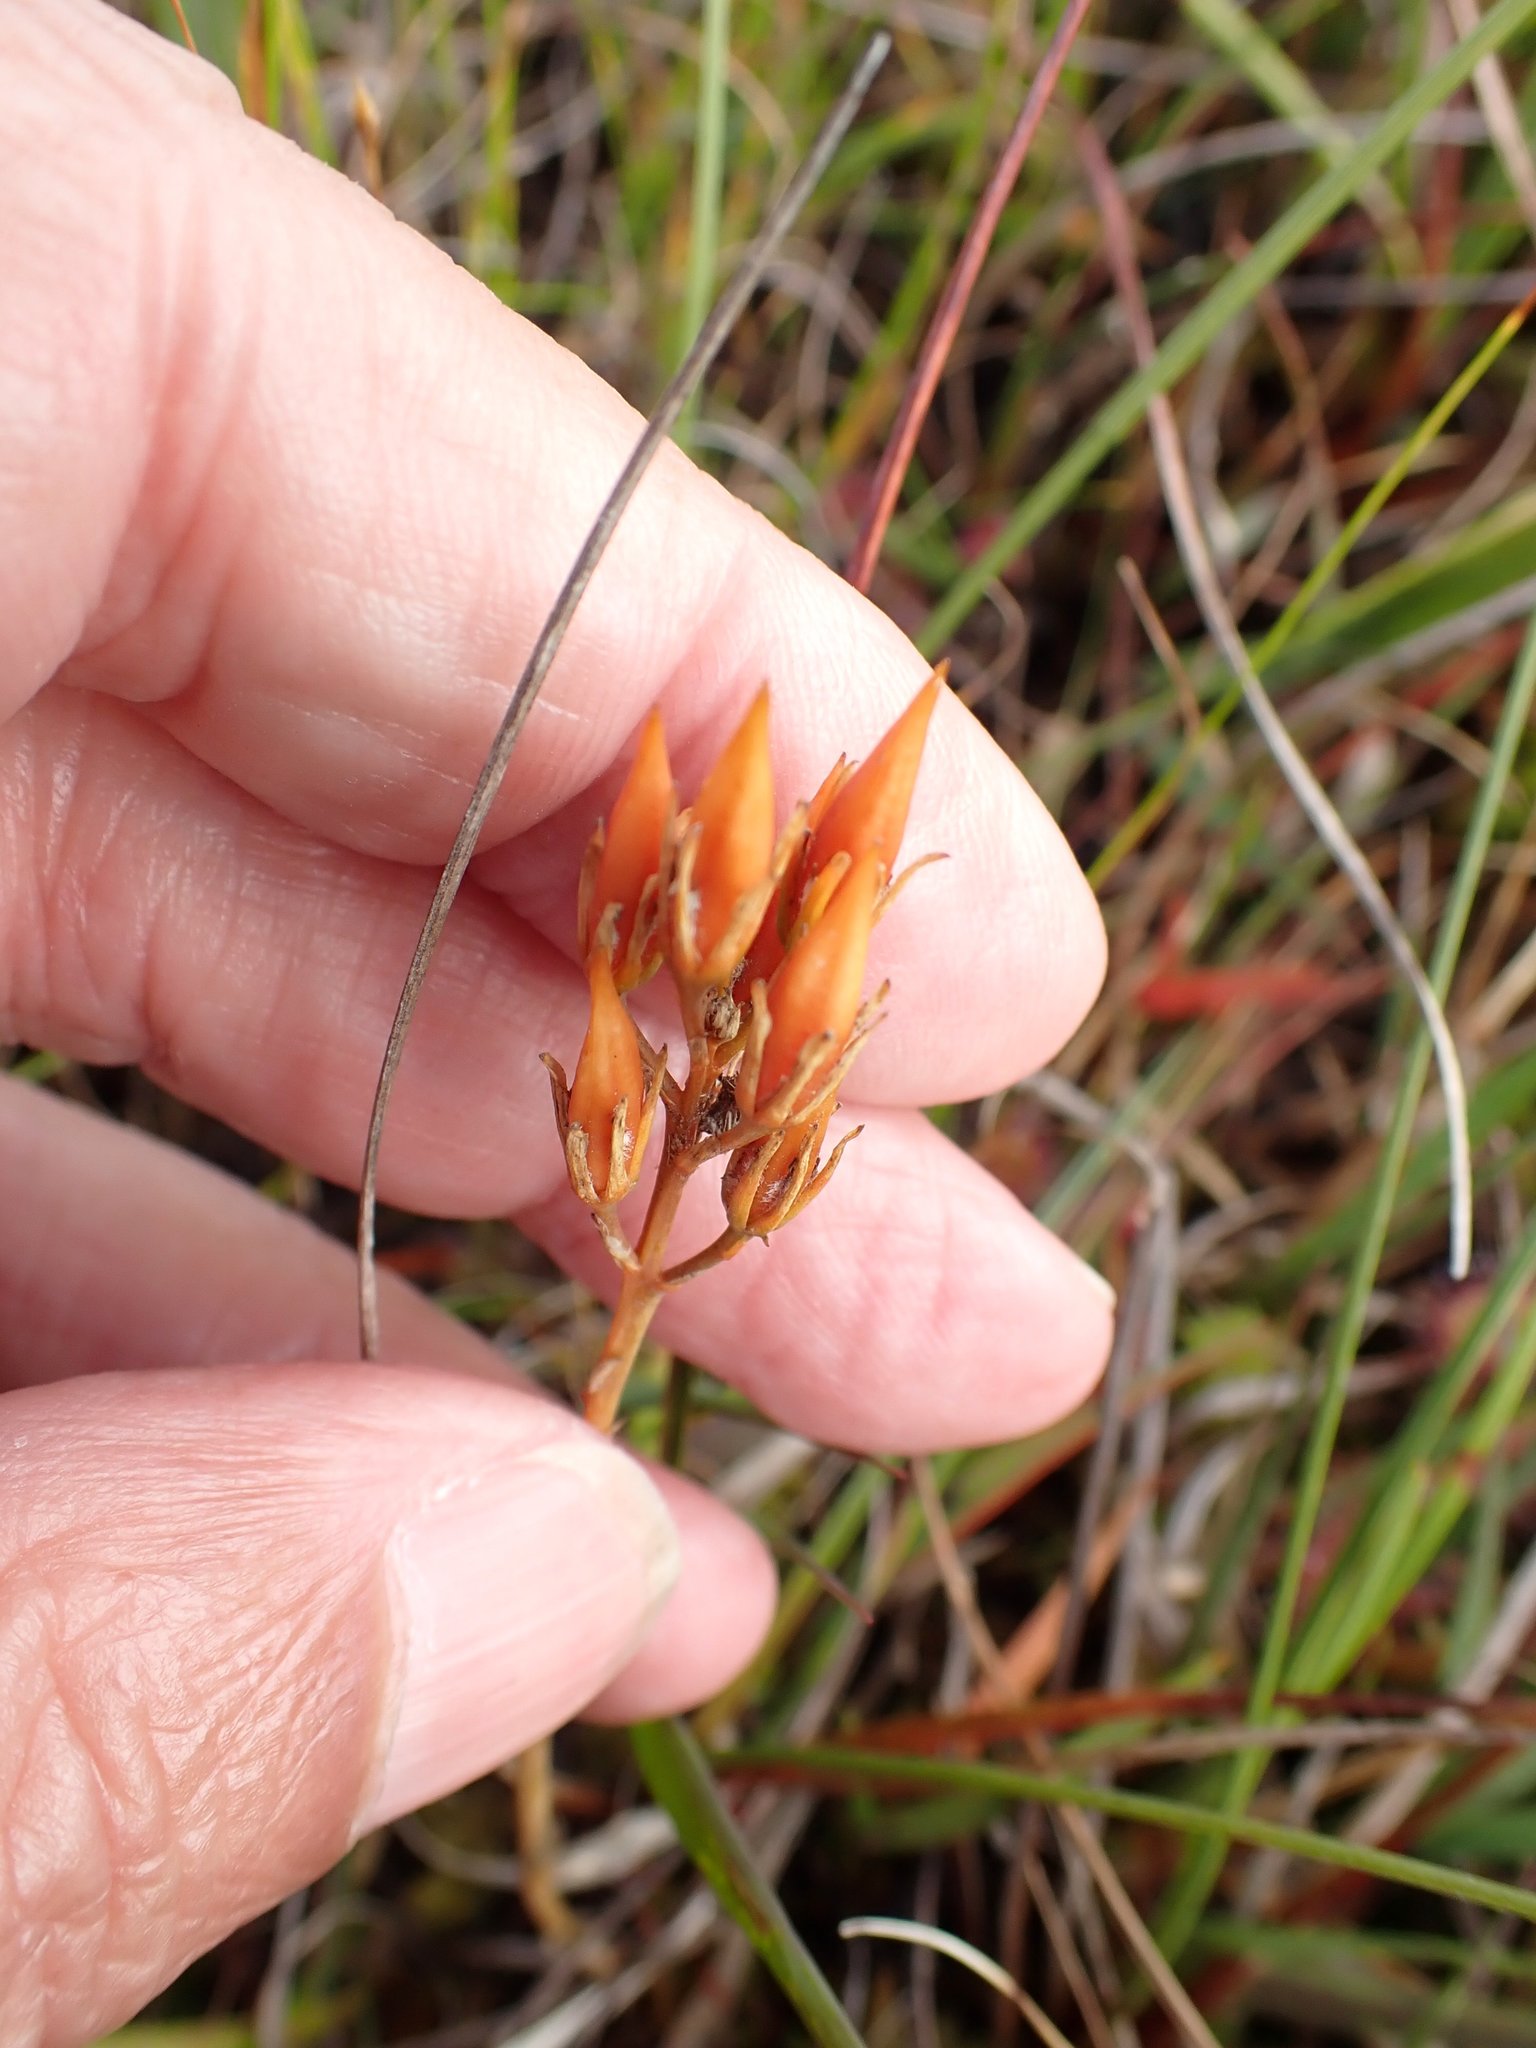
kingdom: Plantae
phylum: Tracheophyta
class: Liliopsida
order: Dioscoreales
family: Nartheciaceae
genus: Narthecium
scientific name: Narthecium ossifragum
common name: Bog asphodel
